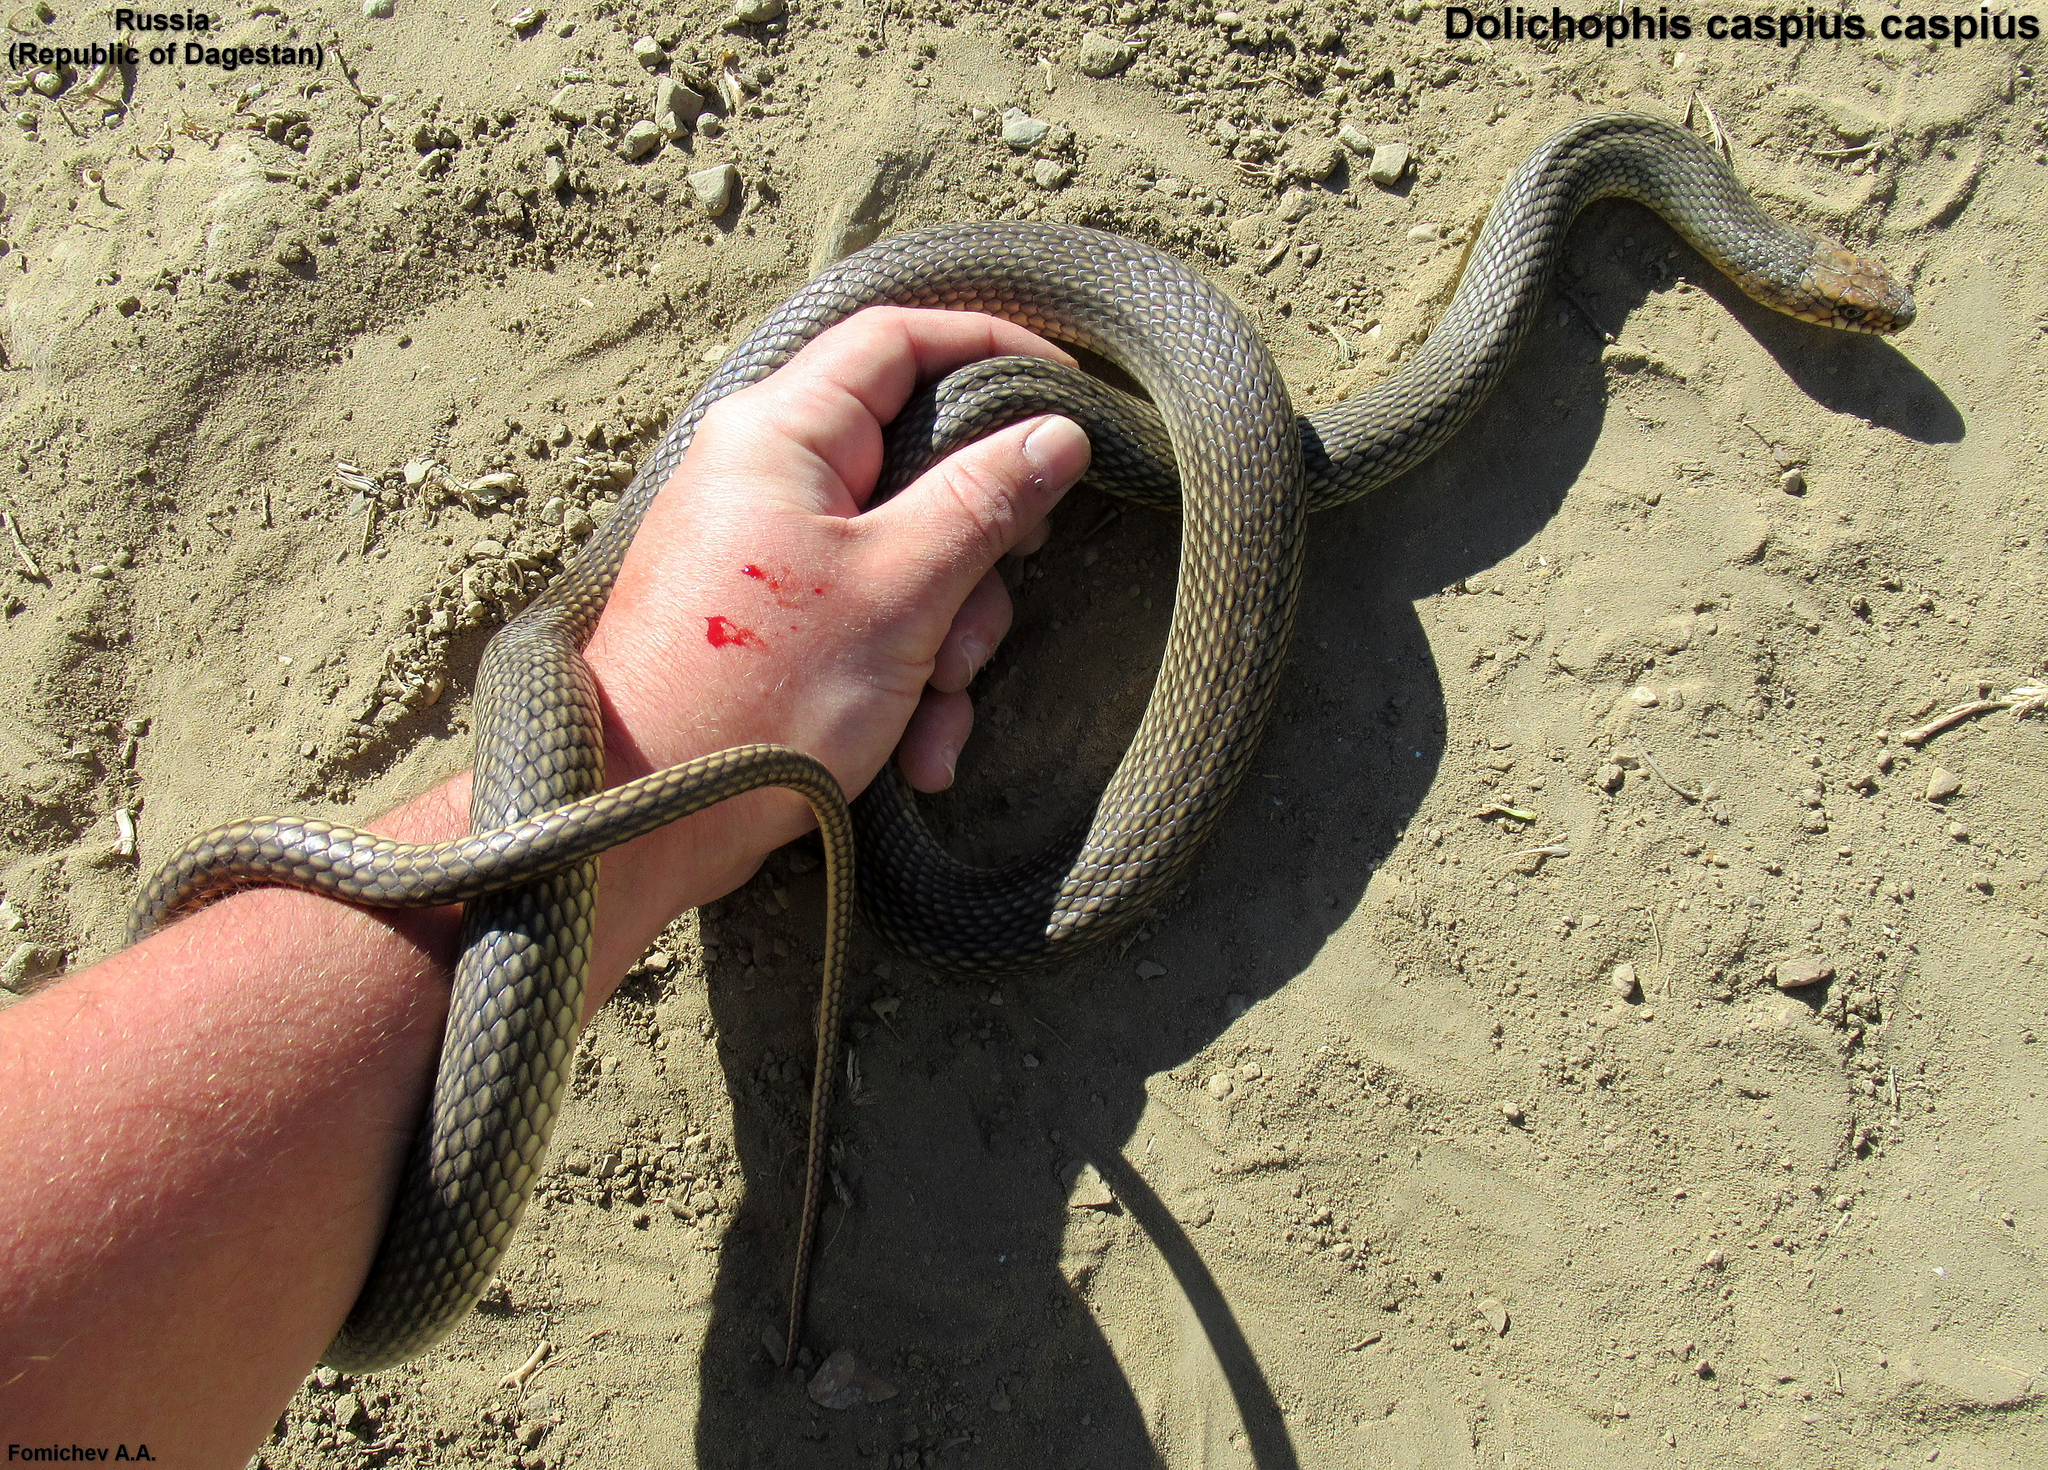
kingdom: Animalia
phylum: Chordata
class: Squamata
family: Colubridae
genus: Dolichophis
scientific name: Dolichophis caspius
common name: Large whip snake
